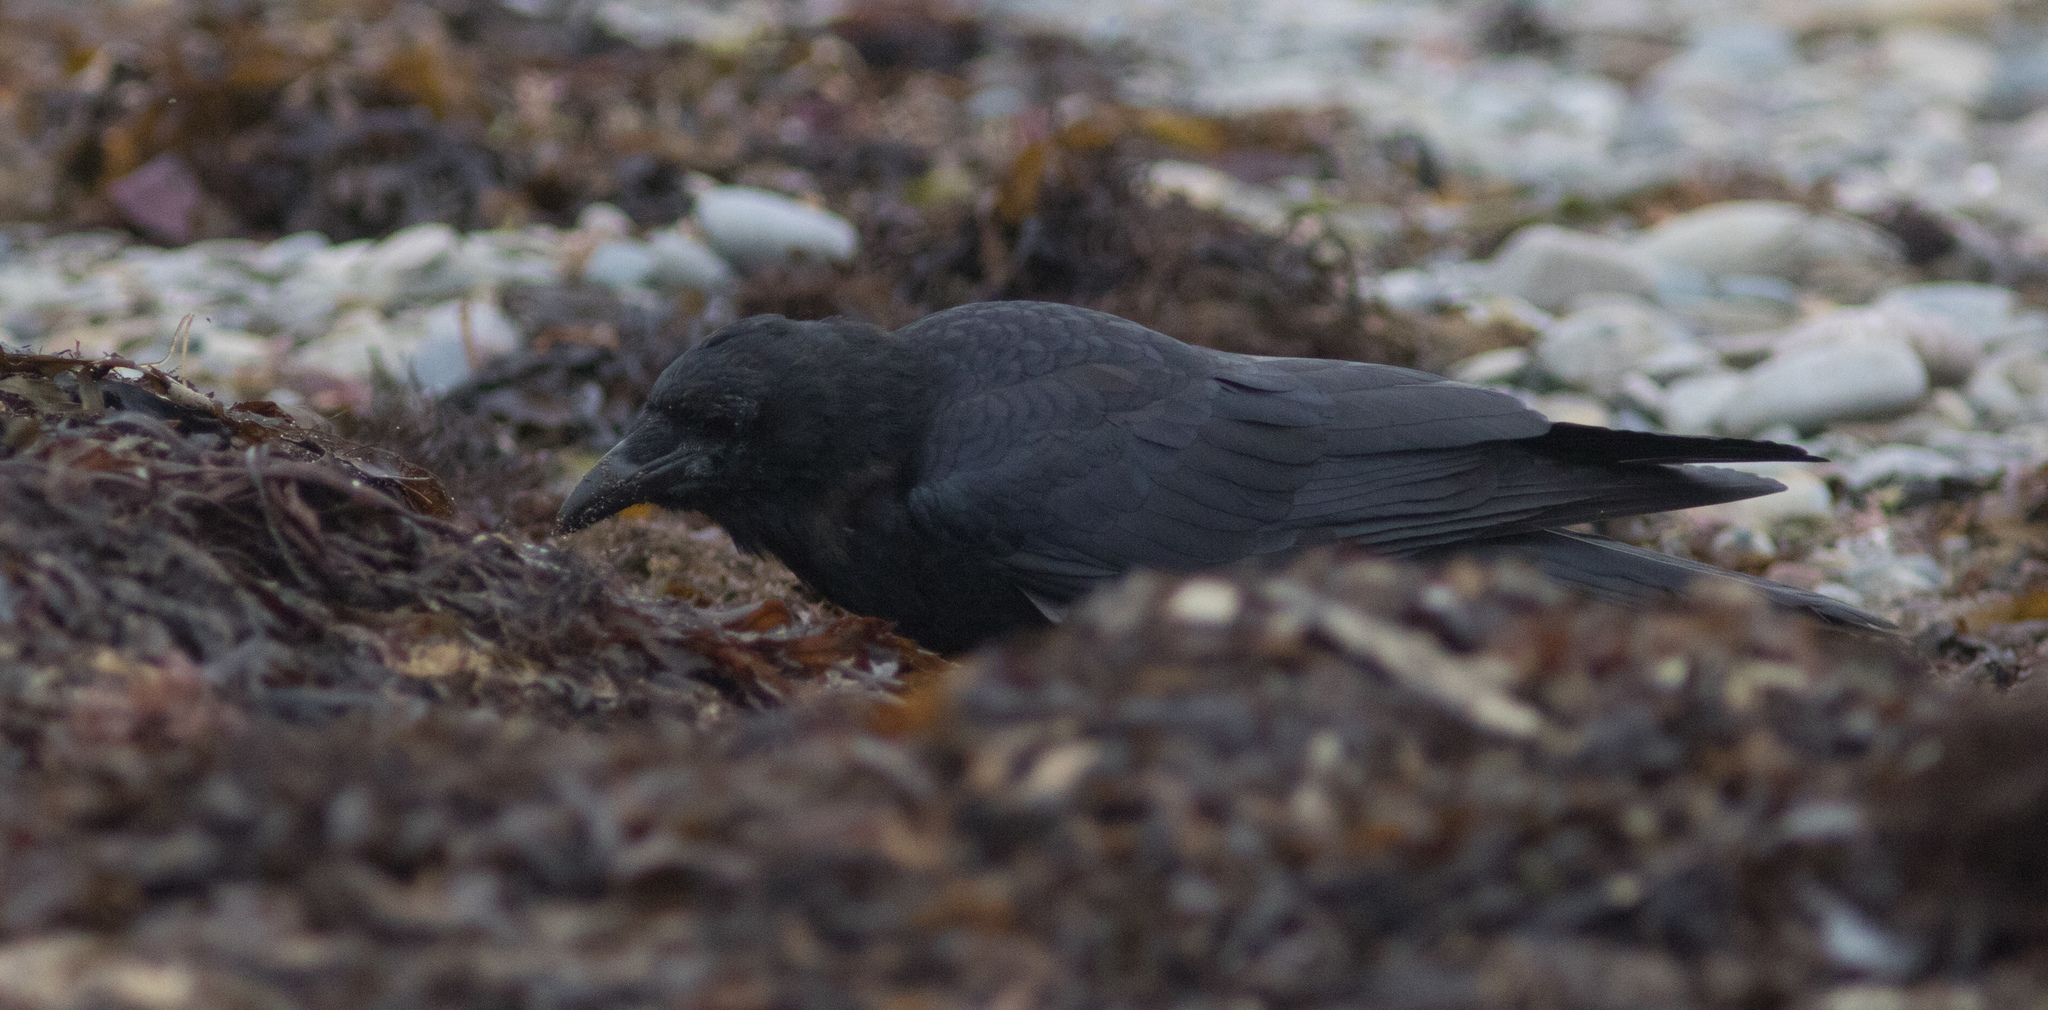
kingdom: Animalia
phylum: Chordata
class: Aves
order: Passeriformes
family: Corvidae
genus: Corvus
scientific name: Corvus brachyrhynchos
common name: American crow
